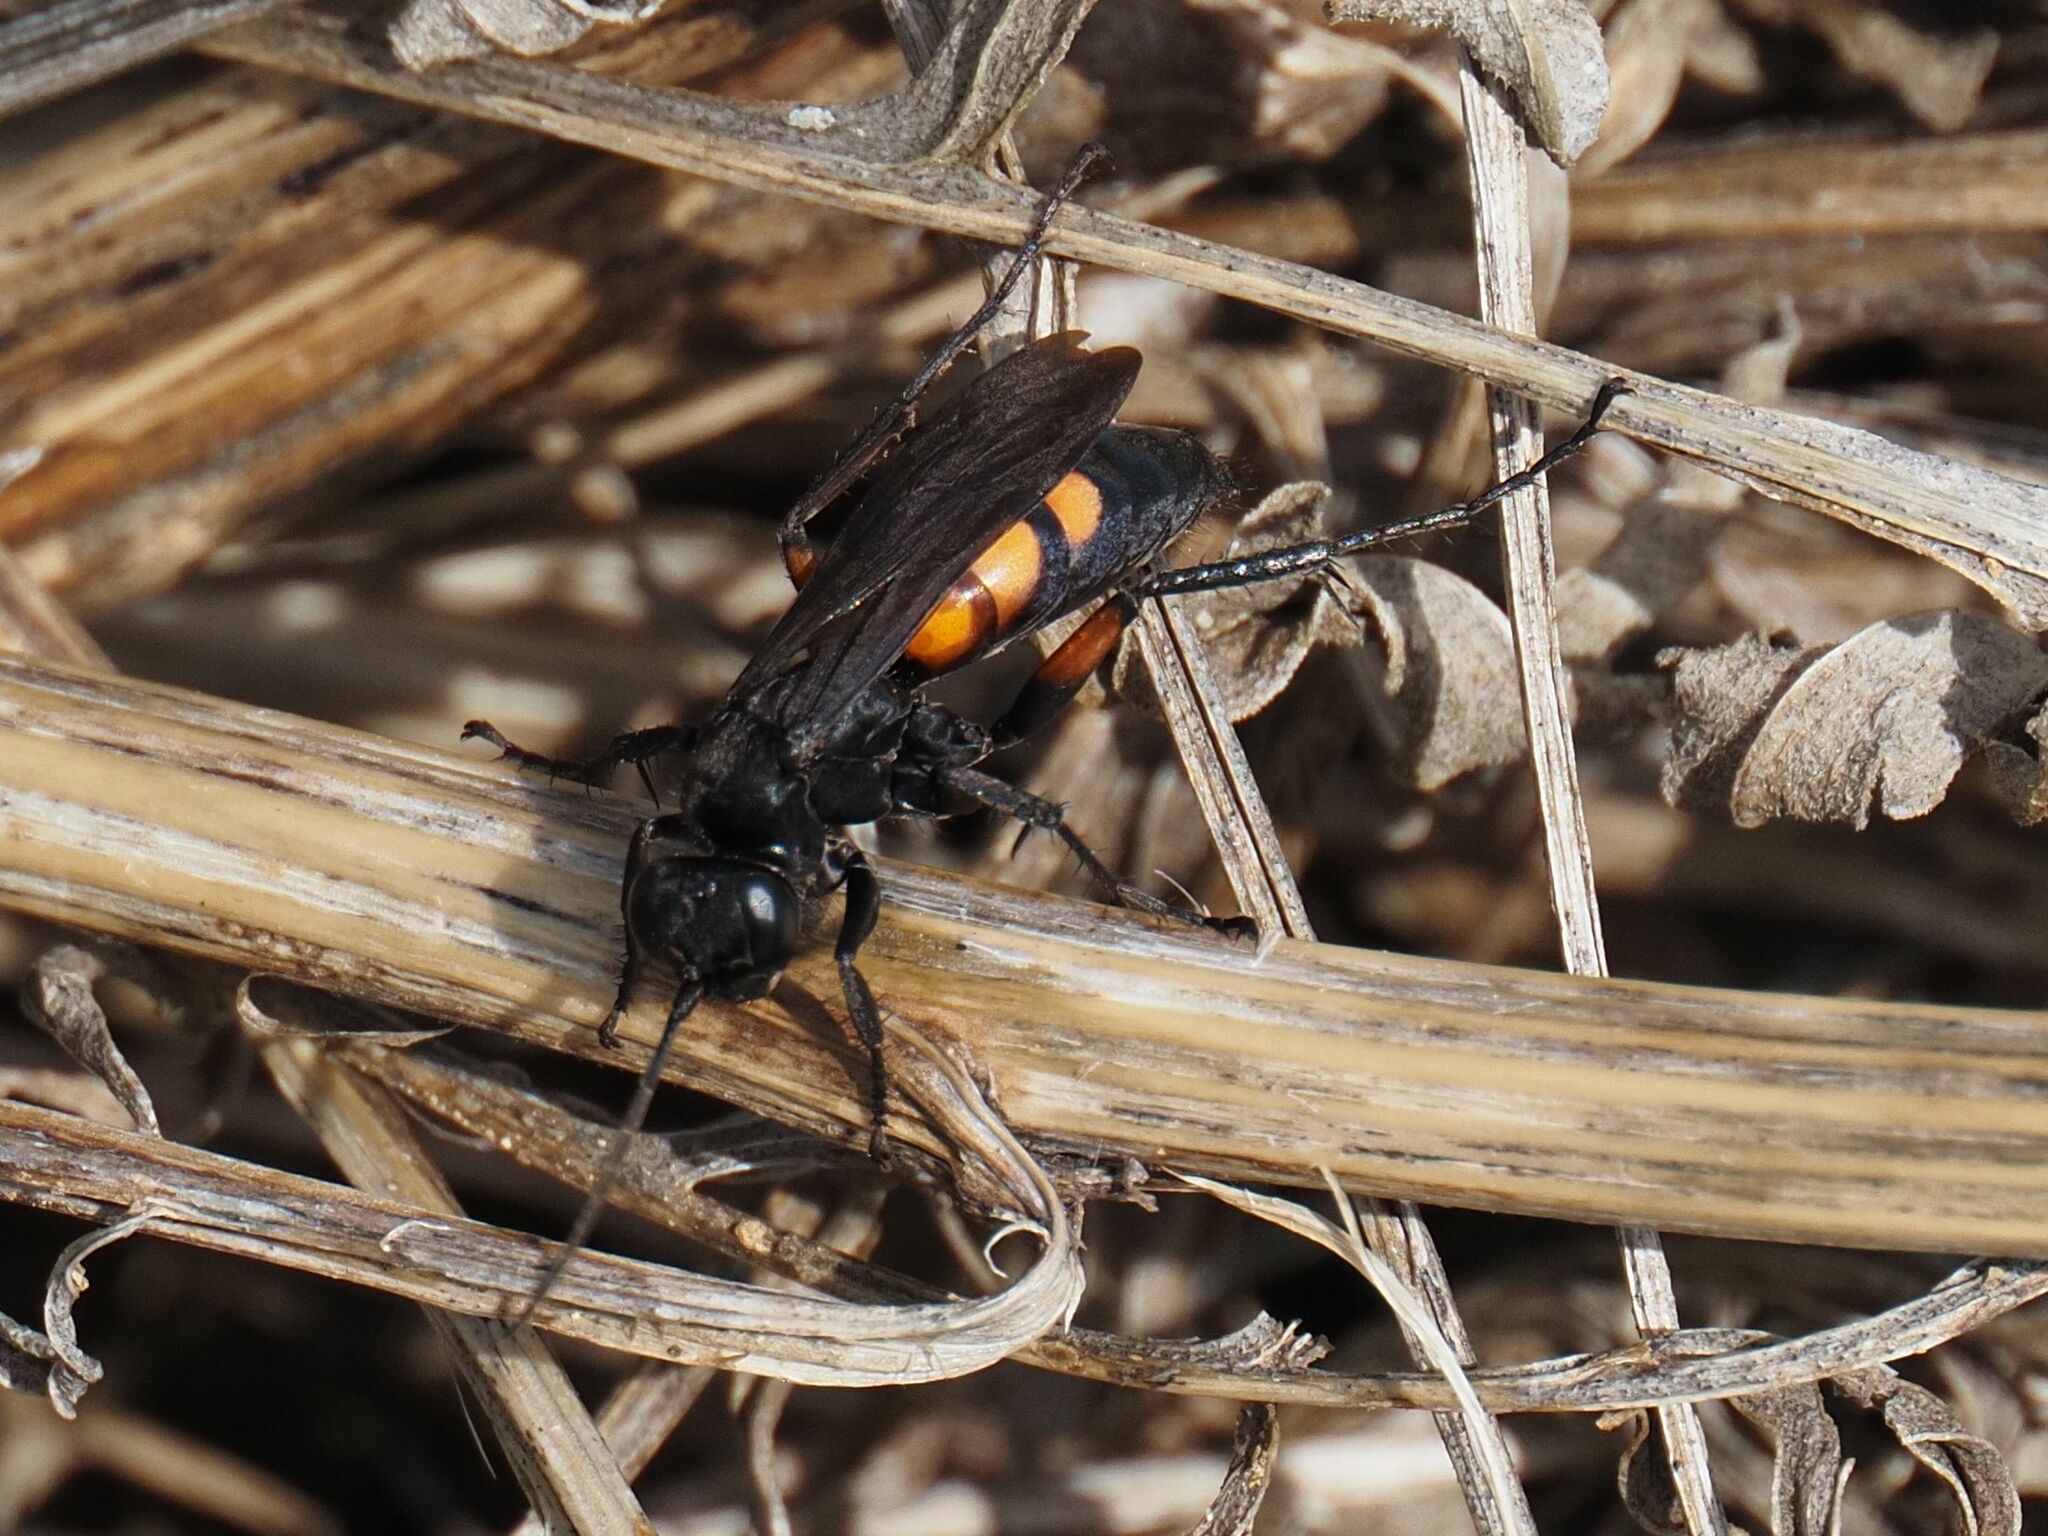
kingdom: Animalia
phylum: Arthropoda
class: Insecta
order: Hymenoptera
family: Pompilidae
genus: Anoplius
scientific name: Anoplius viaticus
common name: Black banded spider wasp
